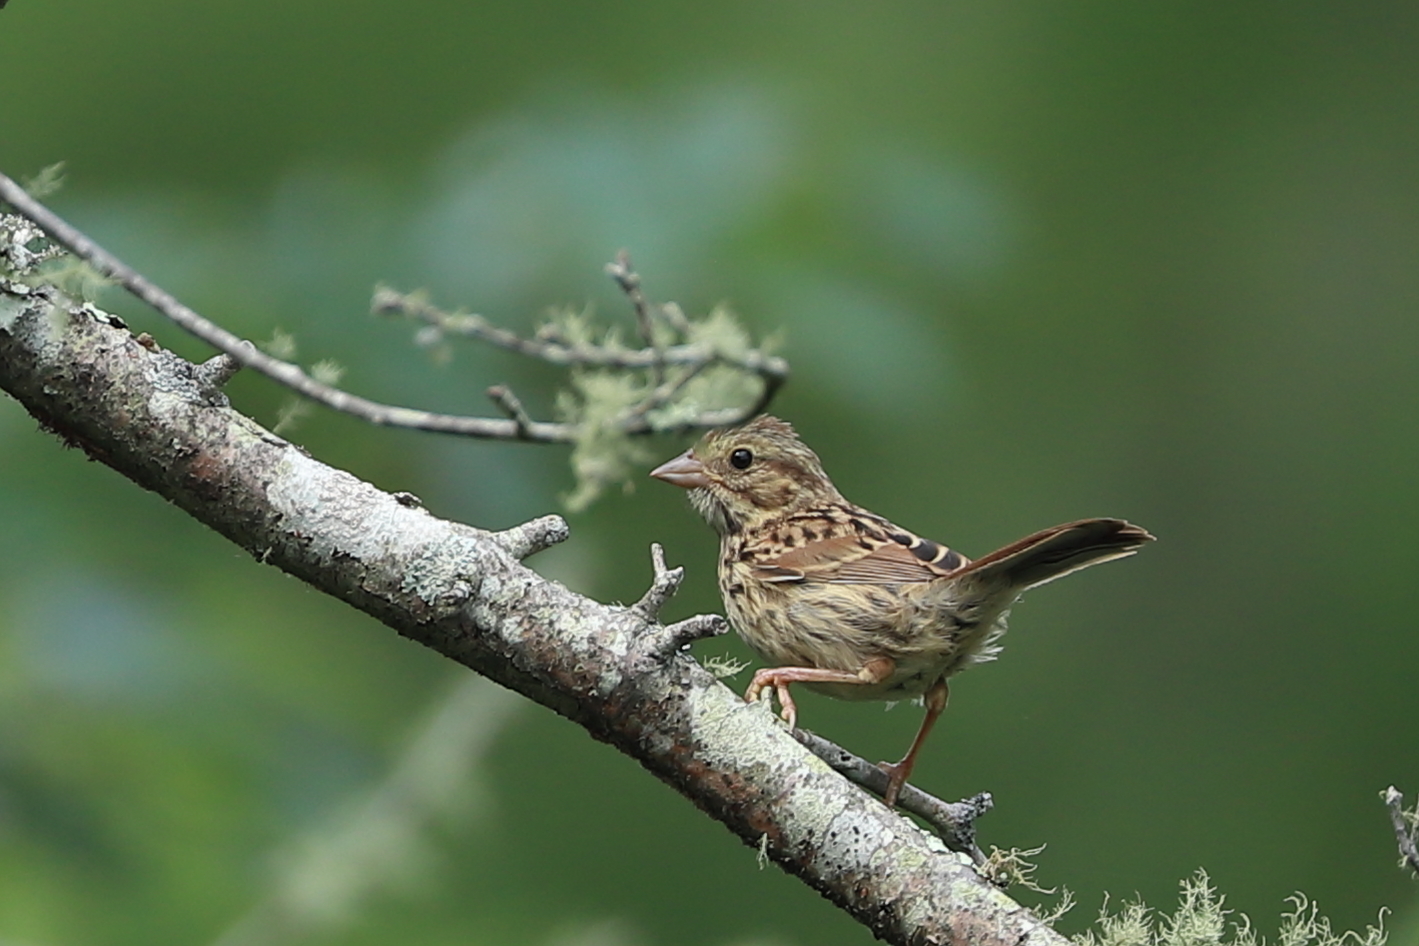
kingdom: Animalia
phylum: Chordata
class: Aves
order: Passeriformes
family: Passerellidae
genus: Melospiza
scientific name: Melospiza melodia
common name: Song sparrow
